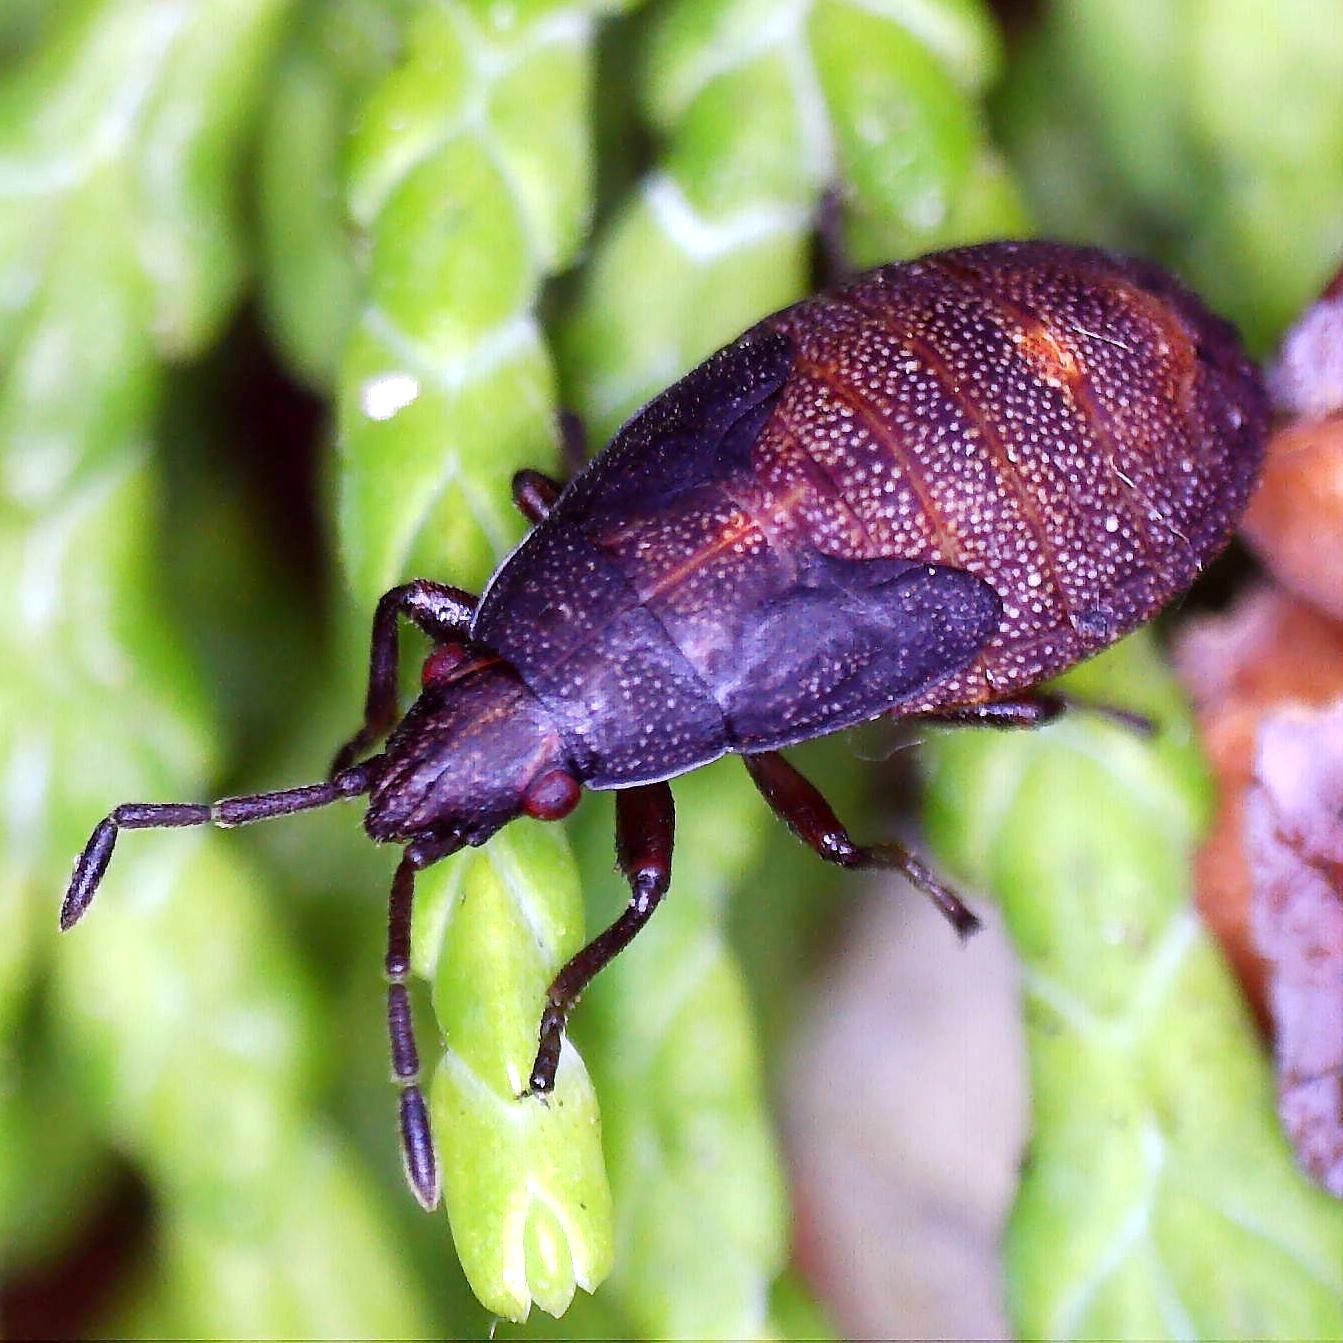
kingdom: Animalia
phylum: Arthropoda
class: Insecta
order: Hemiptera
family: Lygaeidae
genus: Orsillus
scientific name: Orsillus depressus
